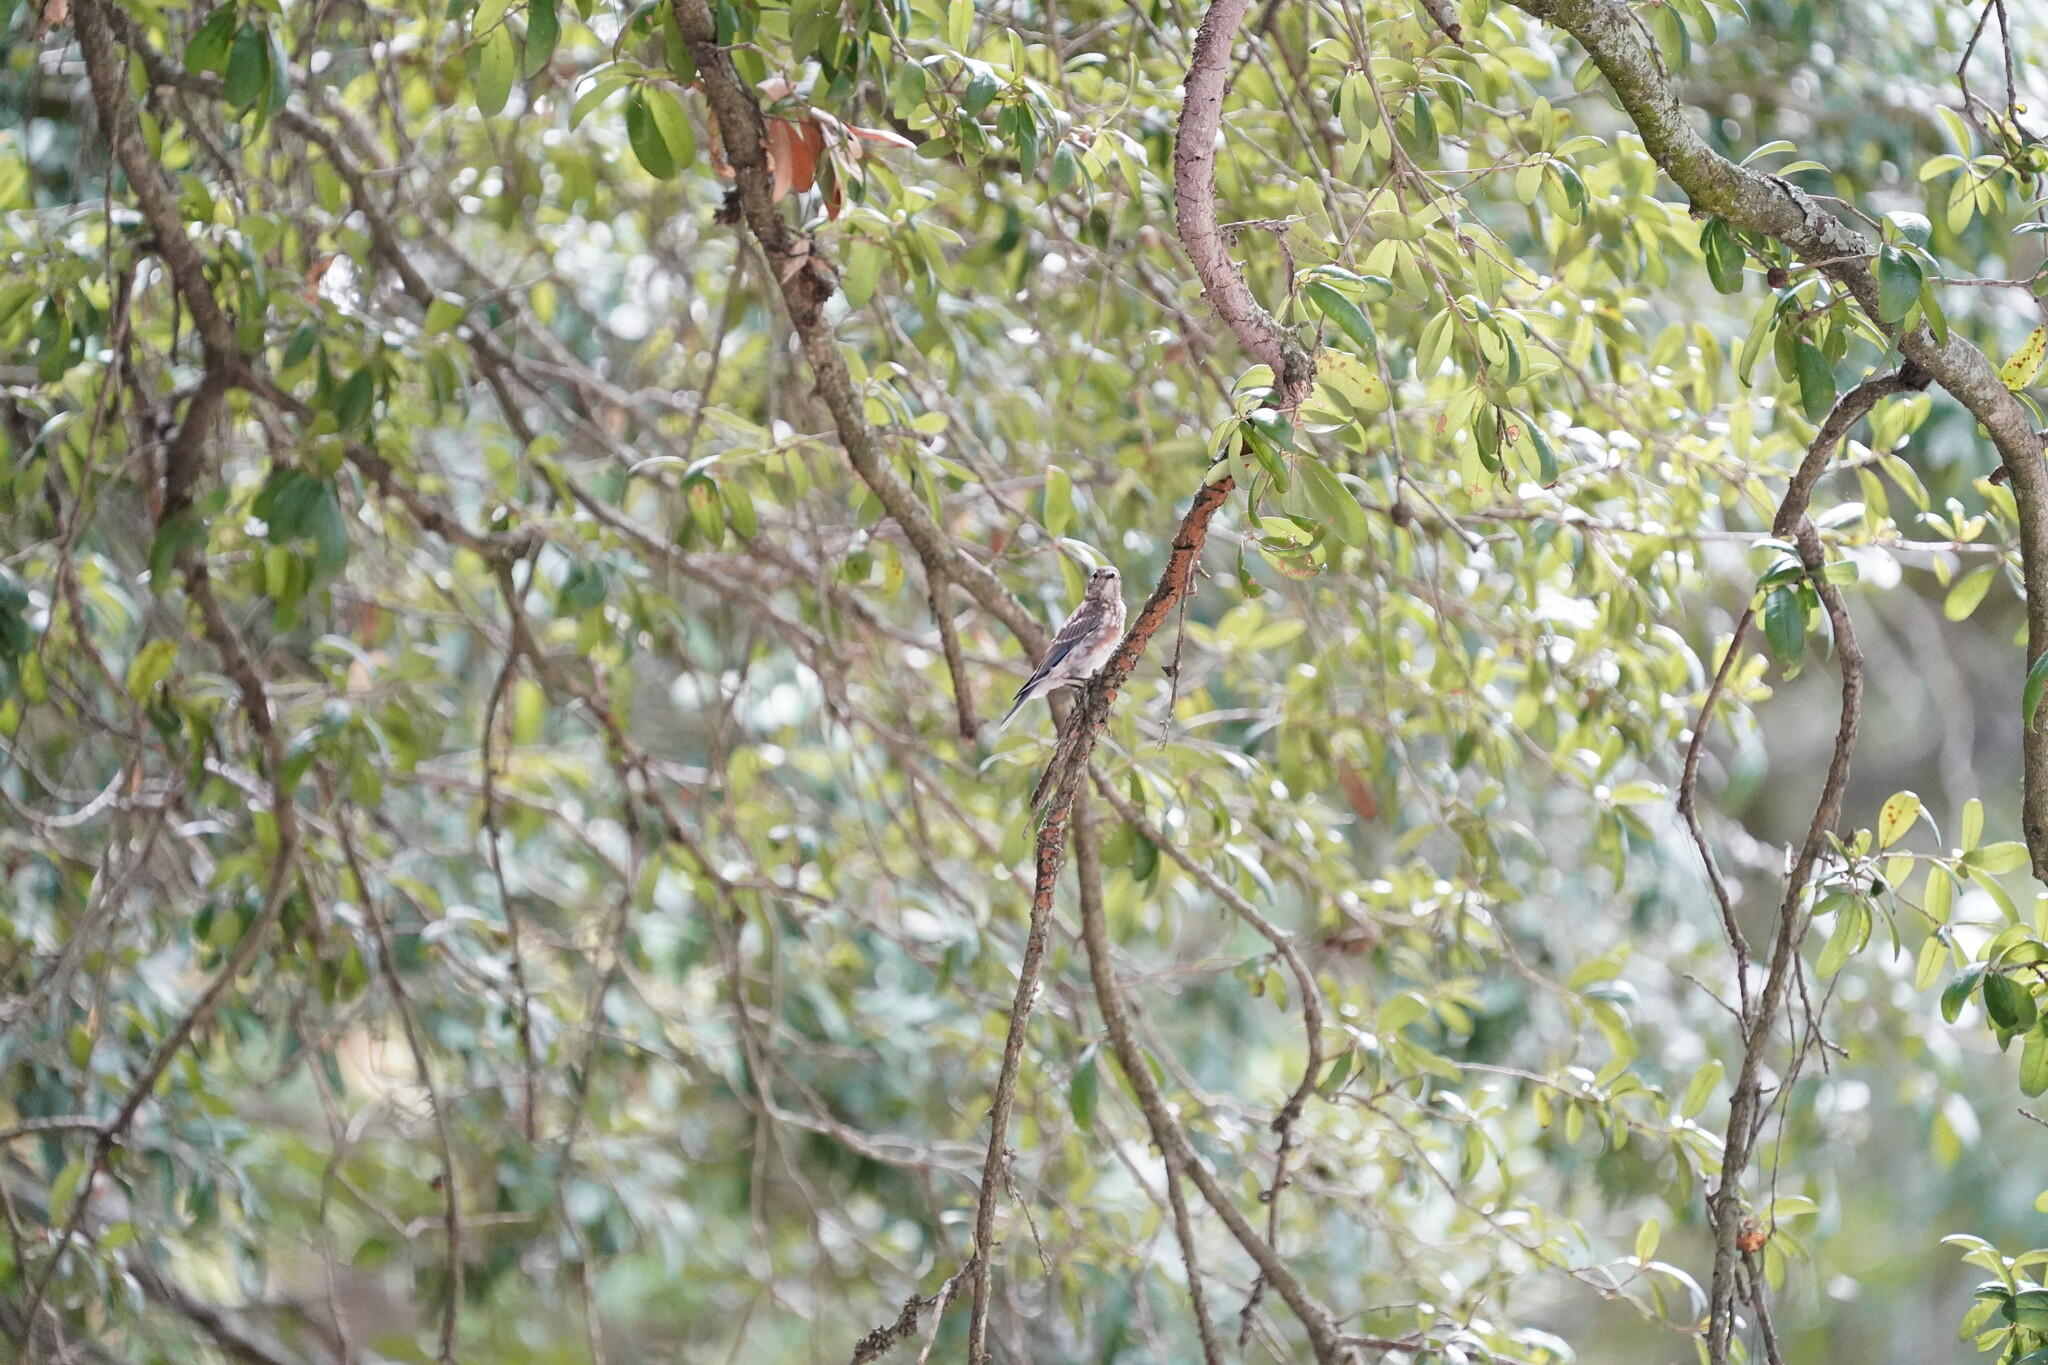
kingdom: Animalia
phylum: Chordata
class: Aves
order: Passeriformes
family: Turdidae
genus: Sialia
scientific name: Sialia sialis
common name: Eastern bluebird
